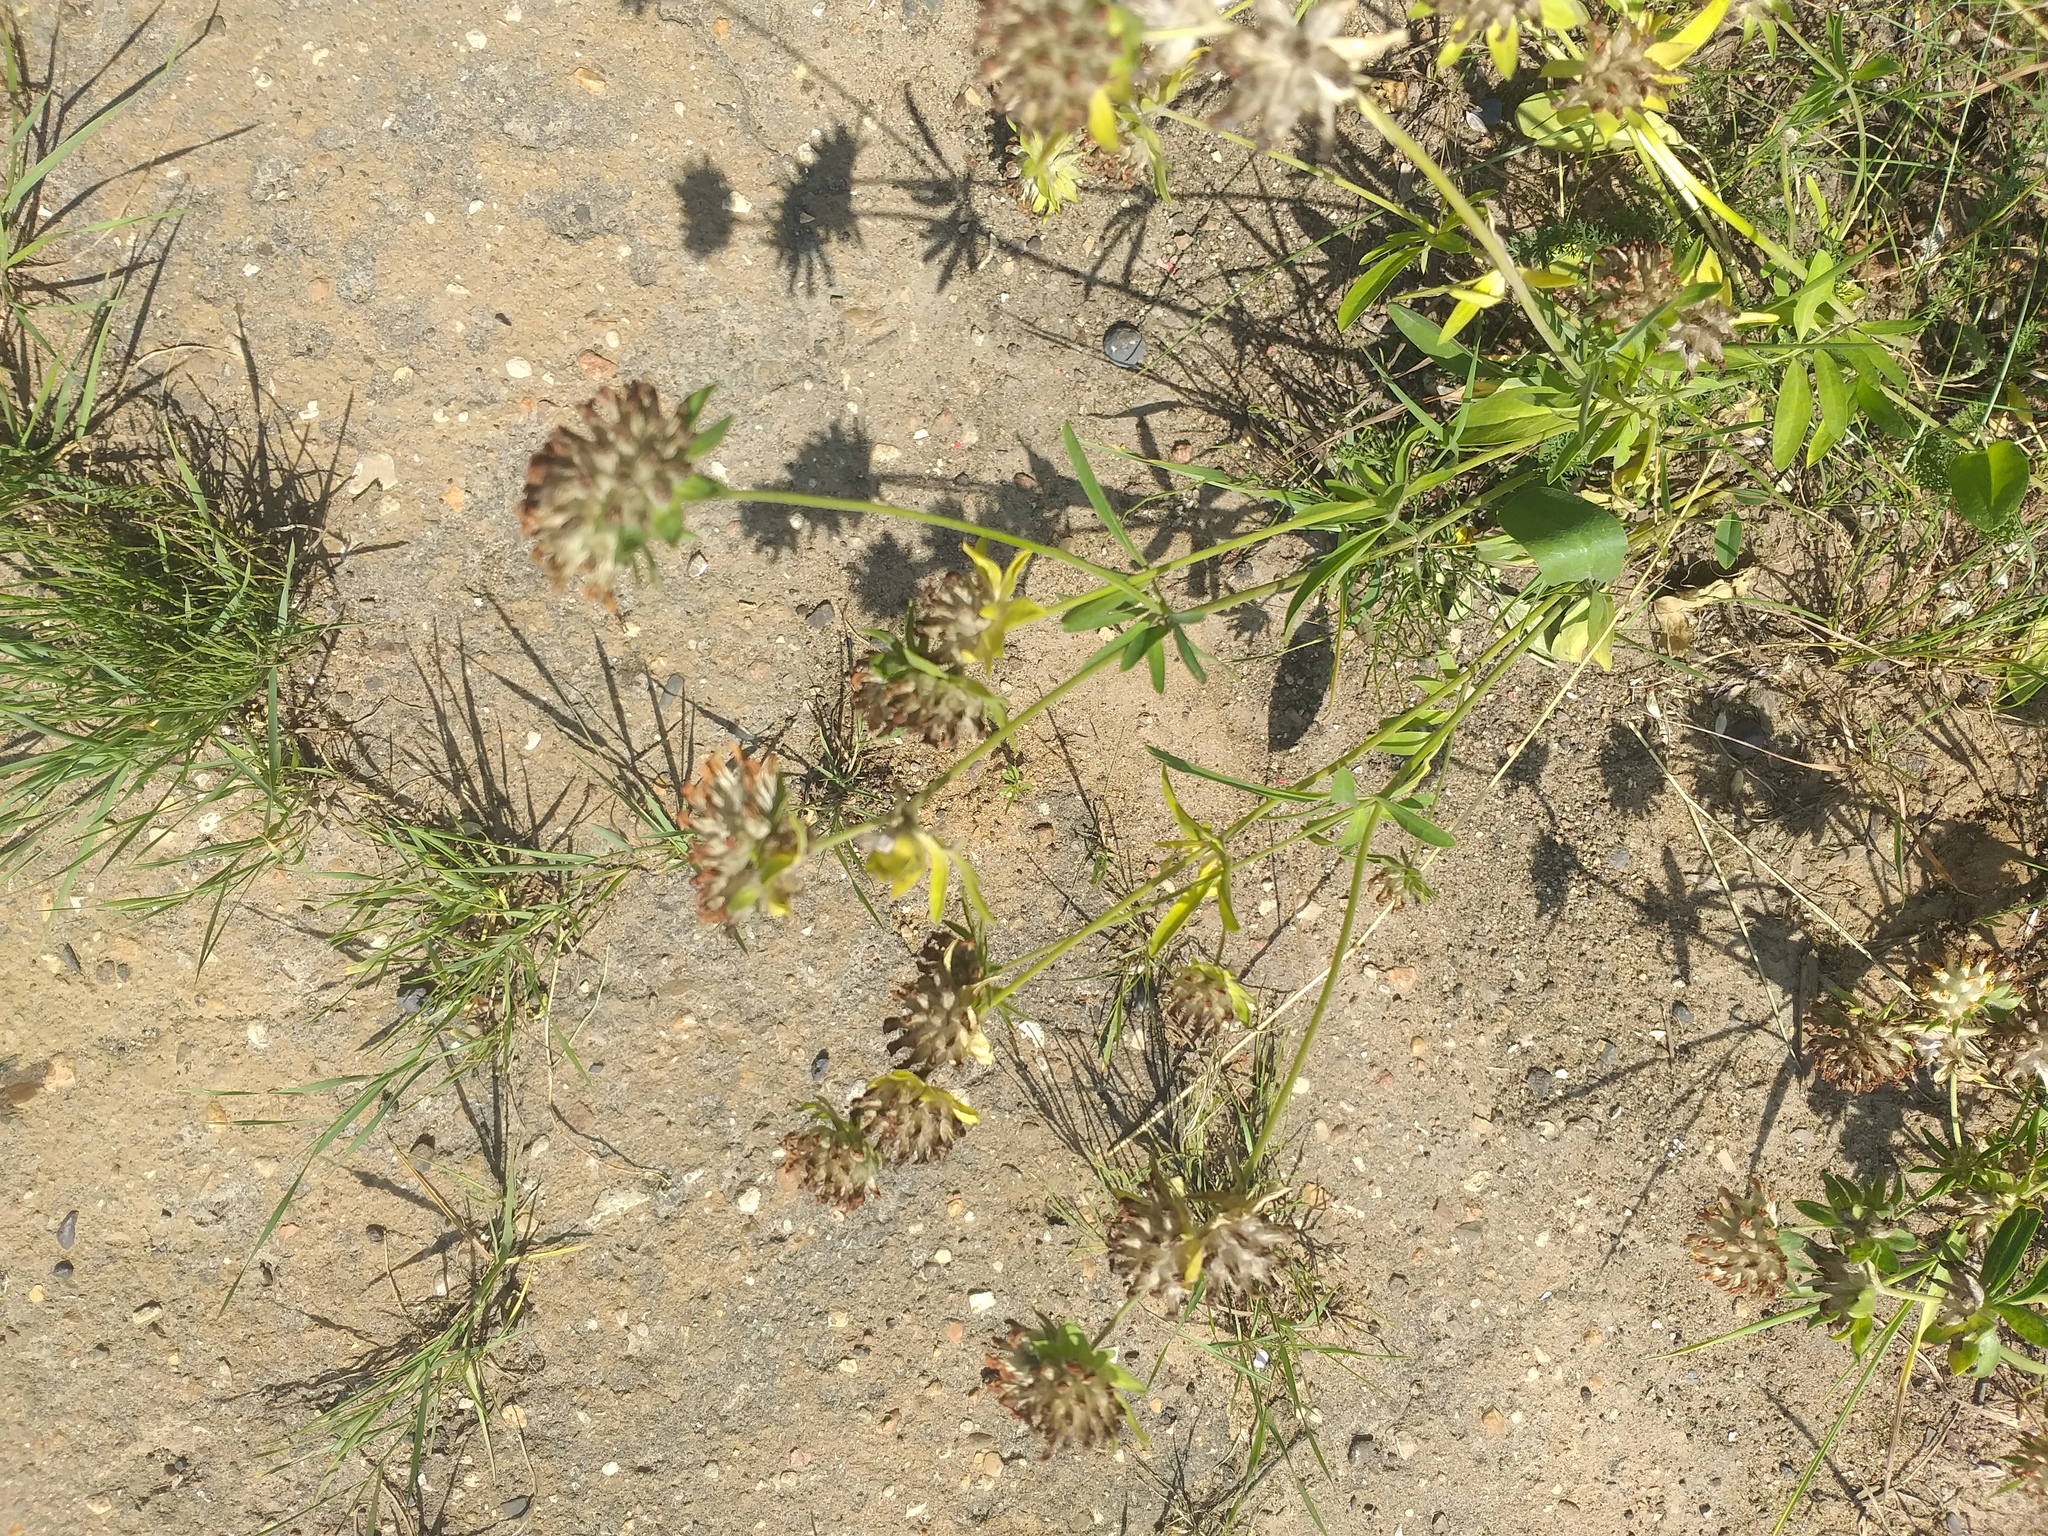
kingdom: Plantae
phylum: Tracheophyta
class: Magnoliopsida
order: Fabales
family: Fabaceae
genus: Anthyllis
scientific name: Anthyllis vulneraria
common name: Kidney vetch
